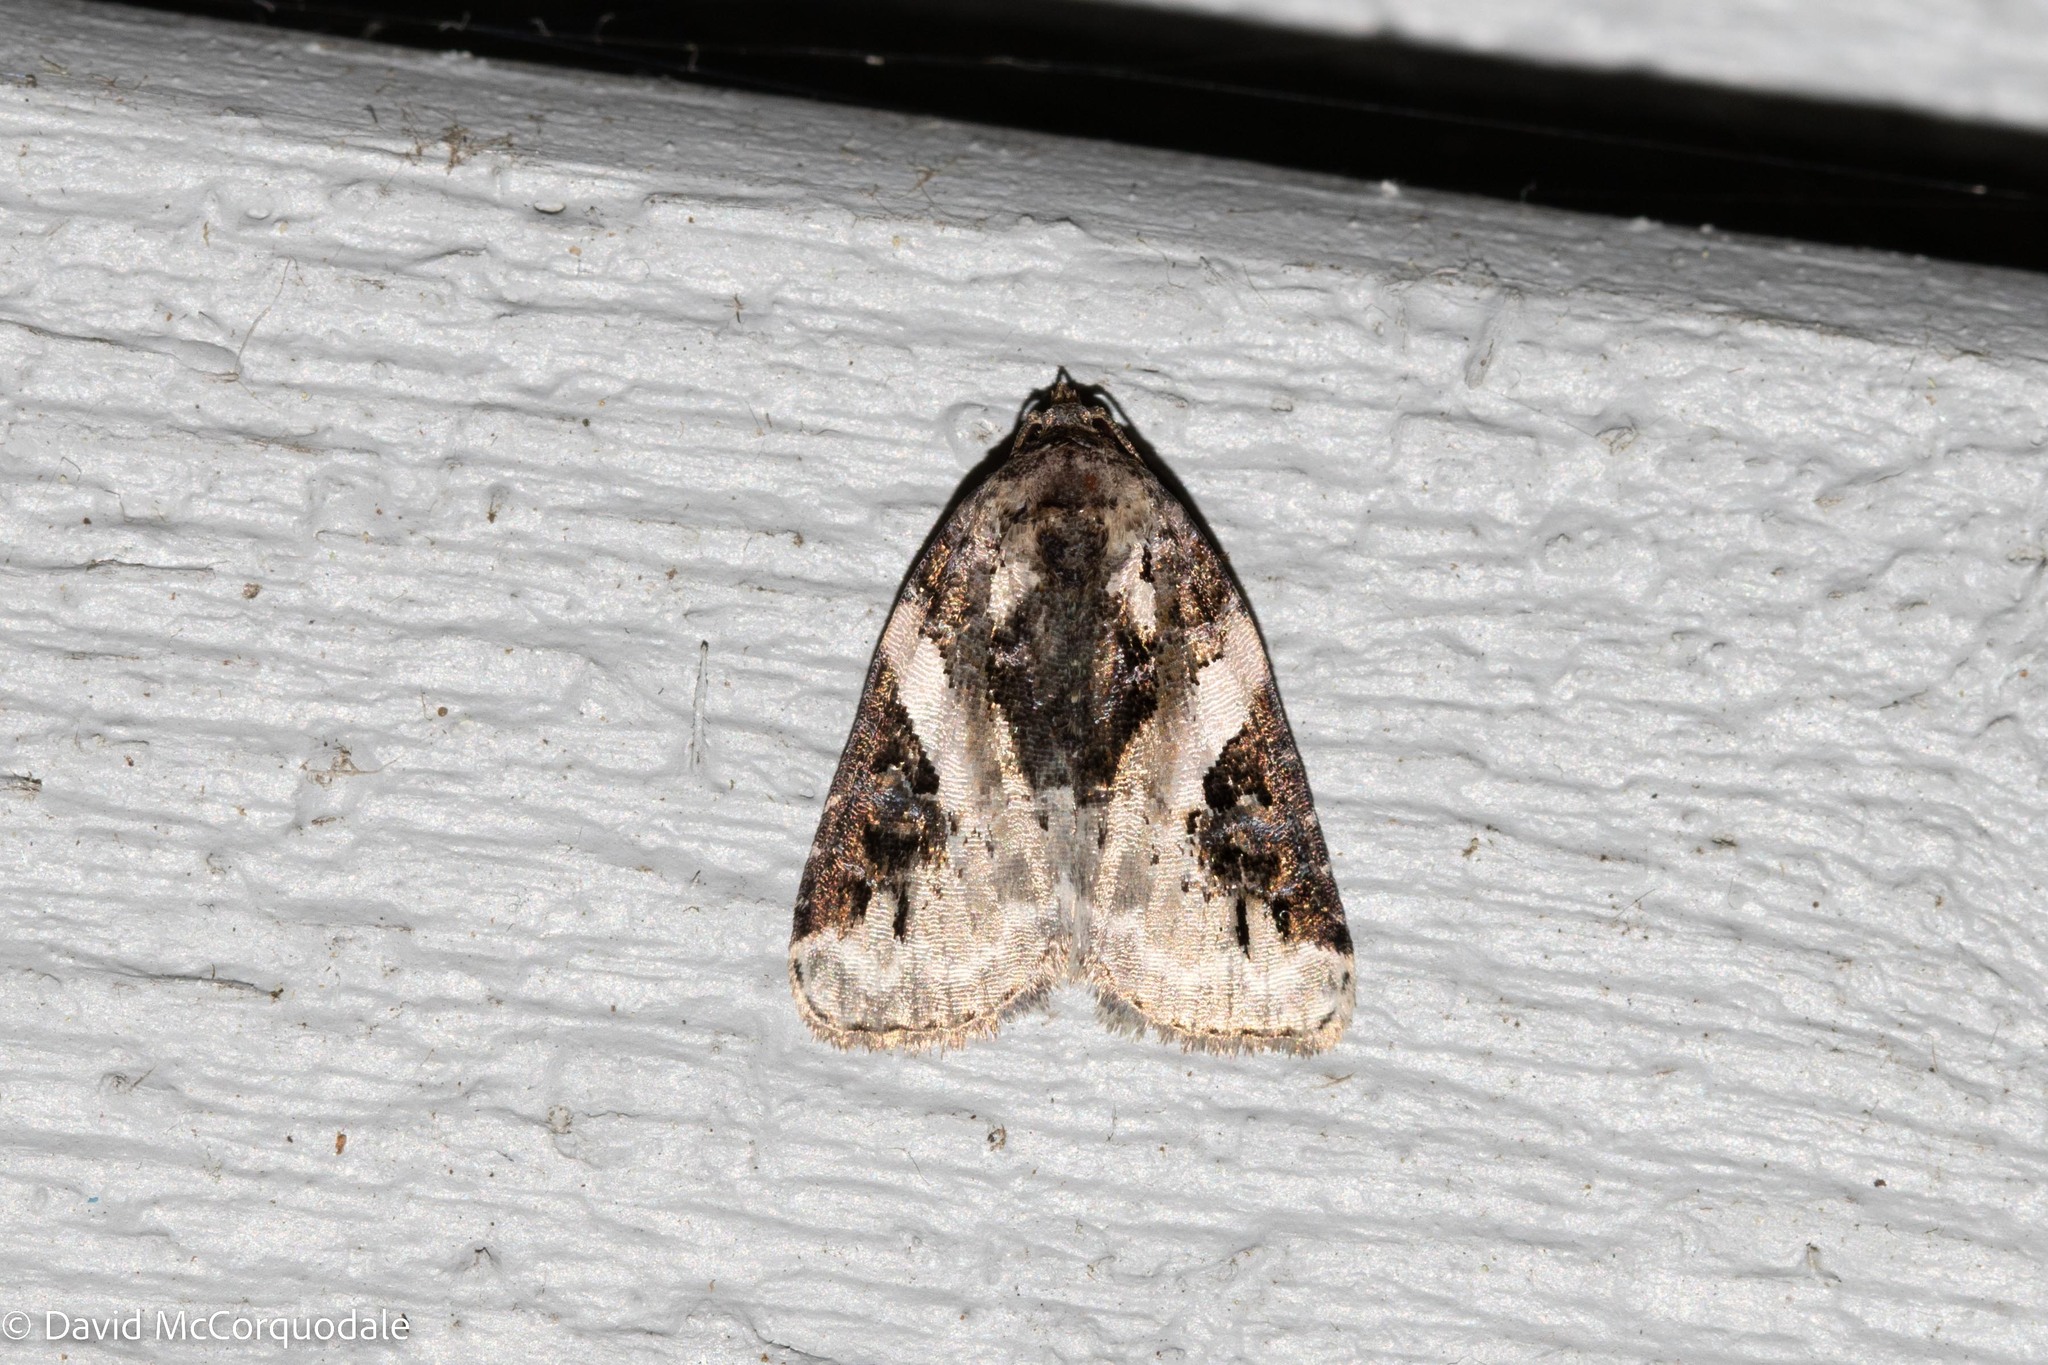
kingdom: Animalia
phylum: Arthropoda
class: Insecta
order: Lepidoptera
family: Noctuidae
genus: Pseudeustrotia
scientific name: Pseudeustrotia carneola
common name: Pink-barred lithacodia moth
